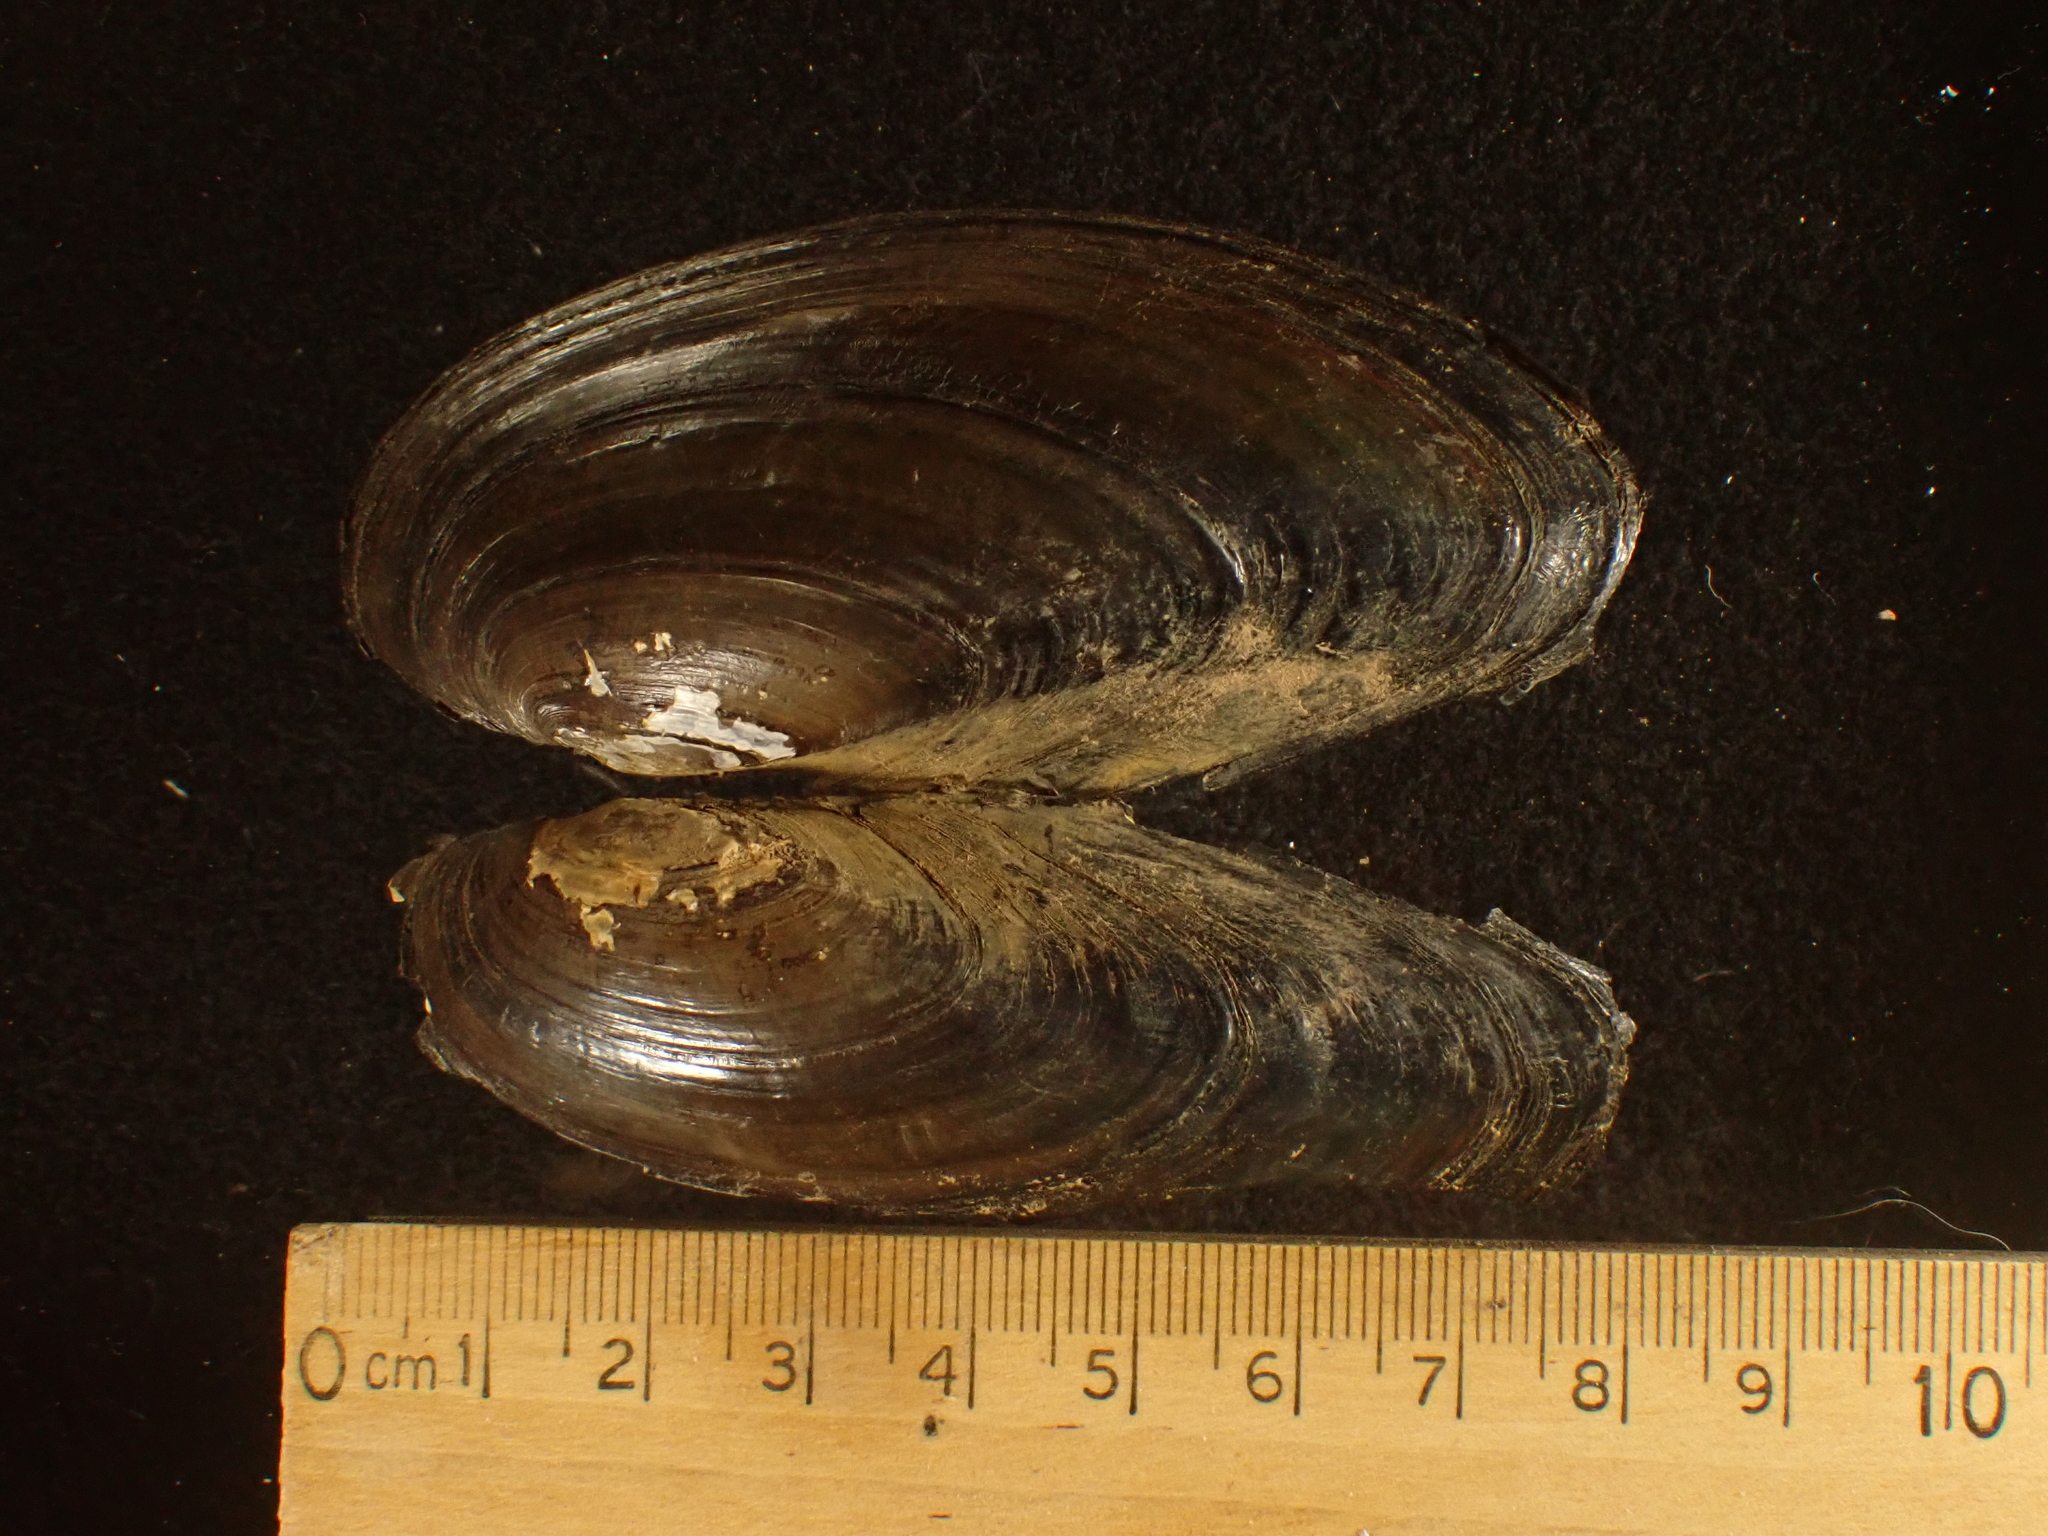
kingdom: Animalia
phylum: Mollusca
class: Bivalvia
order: Unionida
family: Unionidae
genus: Pyganodon
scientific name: Pyganodon cataracta
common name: Eastern floater
